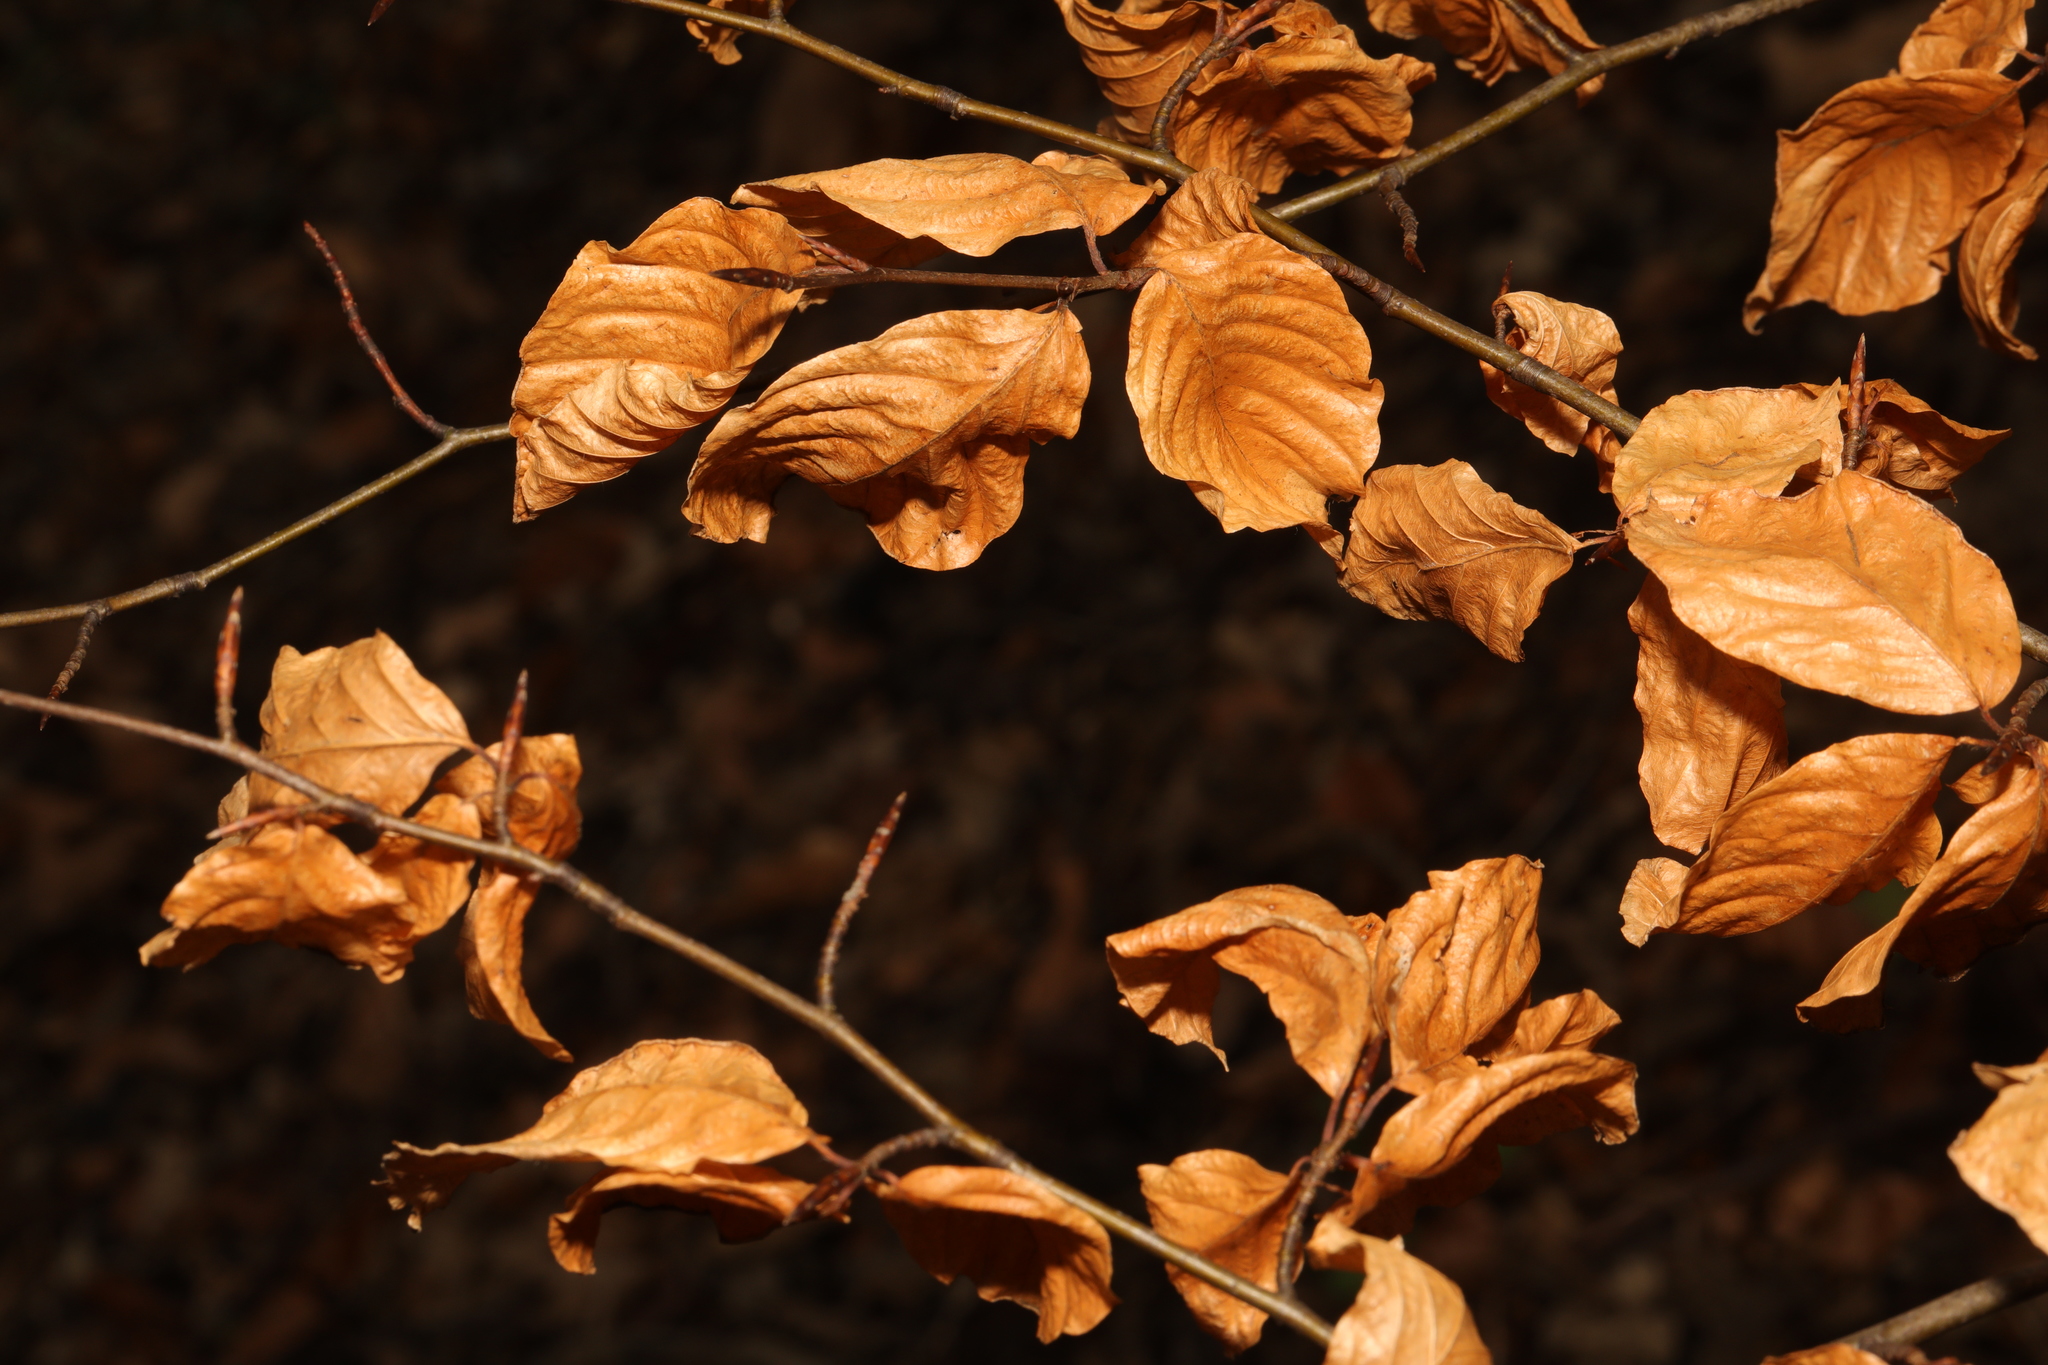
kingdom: Plantae
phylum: Tracheophyta
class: Magnoliopsida
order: Fagales
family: Fagaceae
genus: Fagus
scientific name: Fagus sylvatica
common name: Beech
